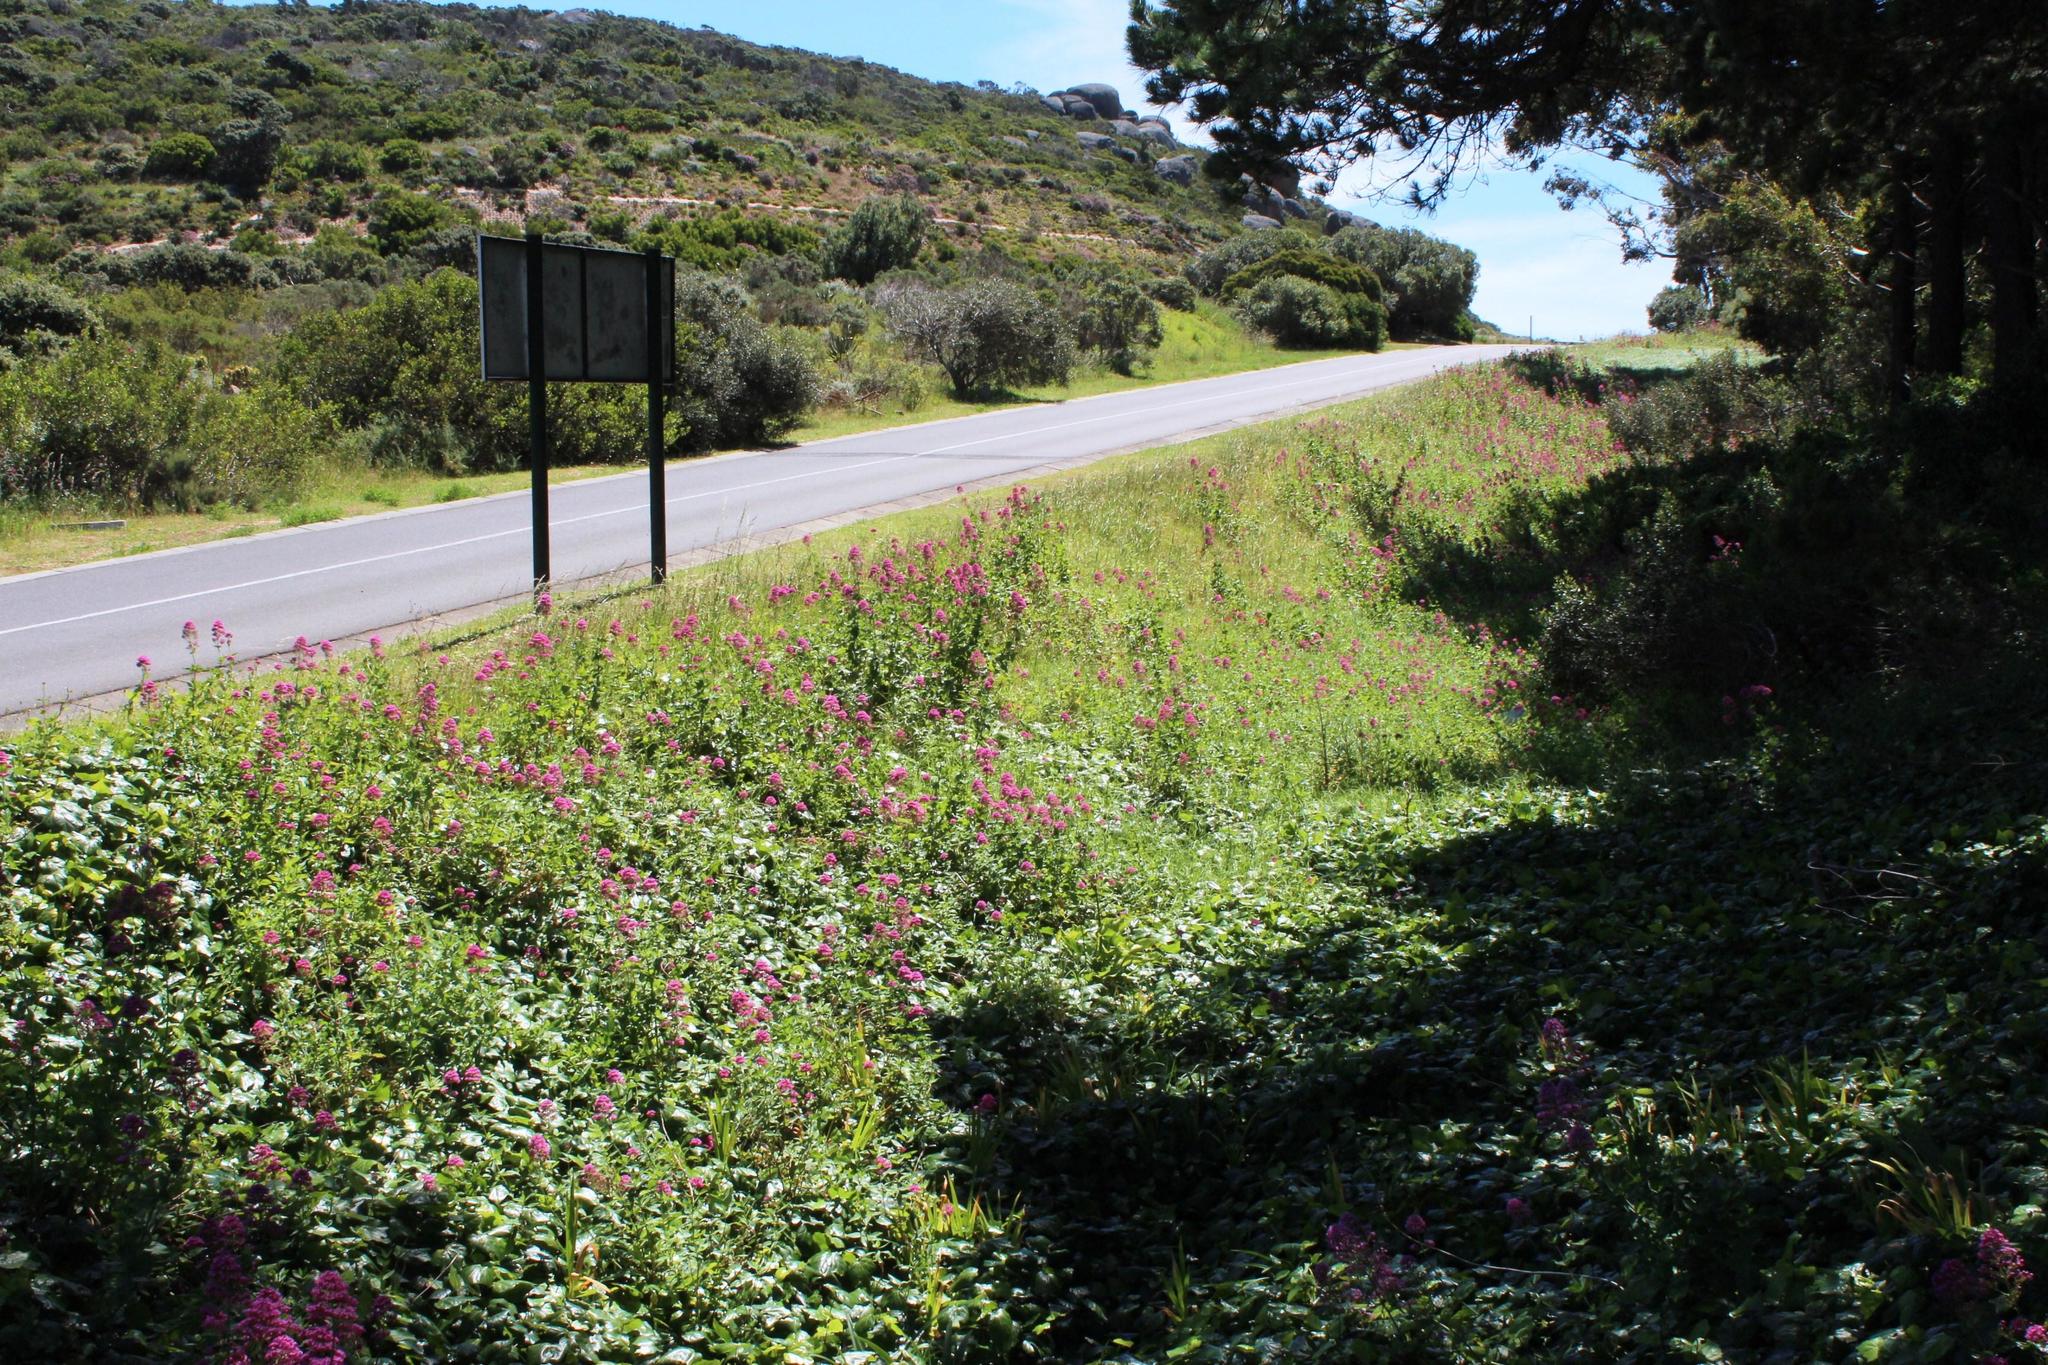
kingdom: Plantae
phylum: Tracheophyta
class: Magnoliopsida
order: Dipsacales
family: Caprifoliaceae
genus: Centranthus
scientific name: Centranthus ruber
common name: Red valerian
